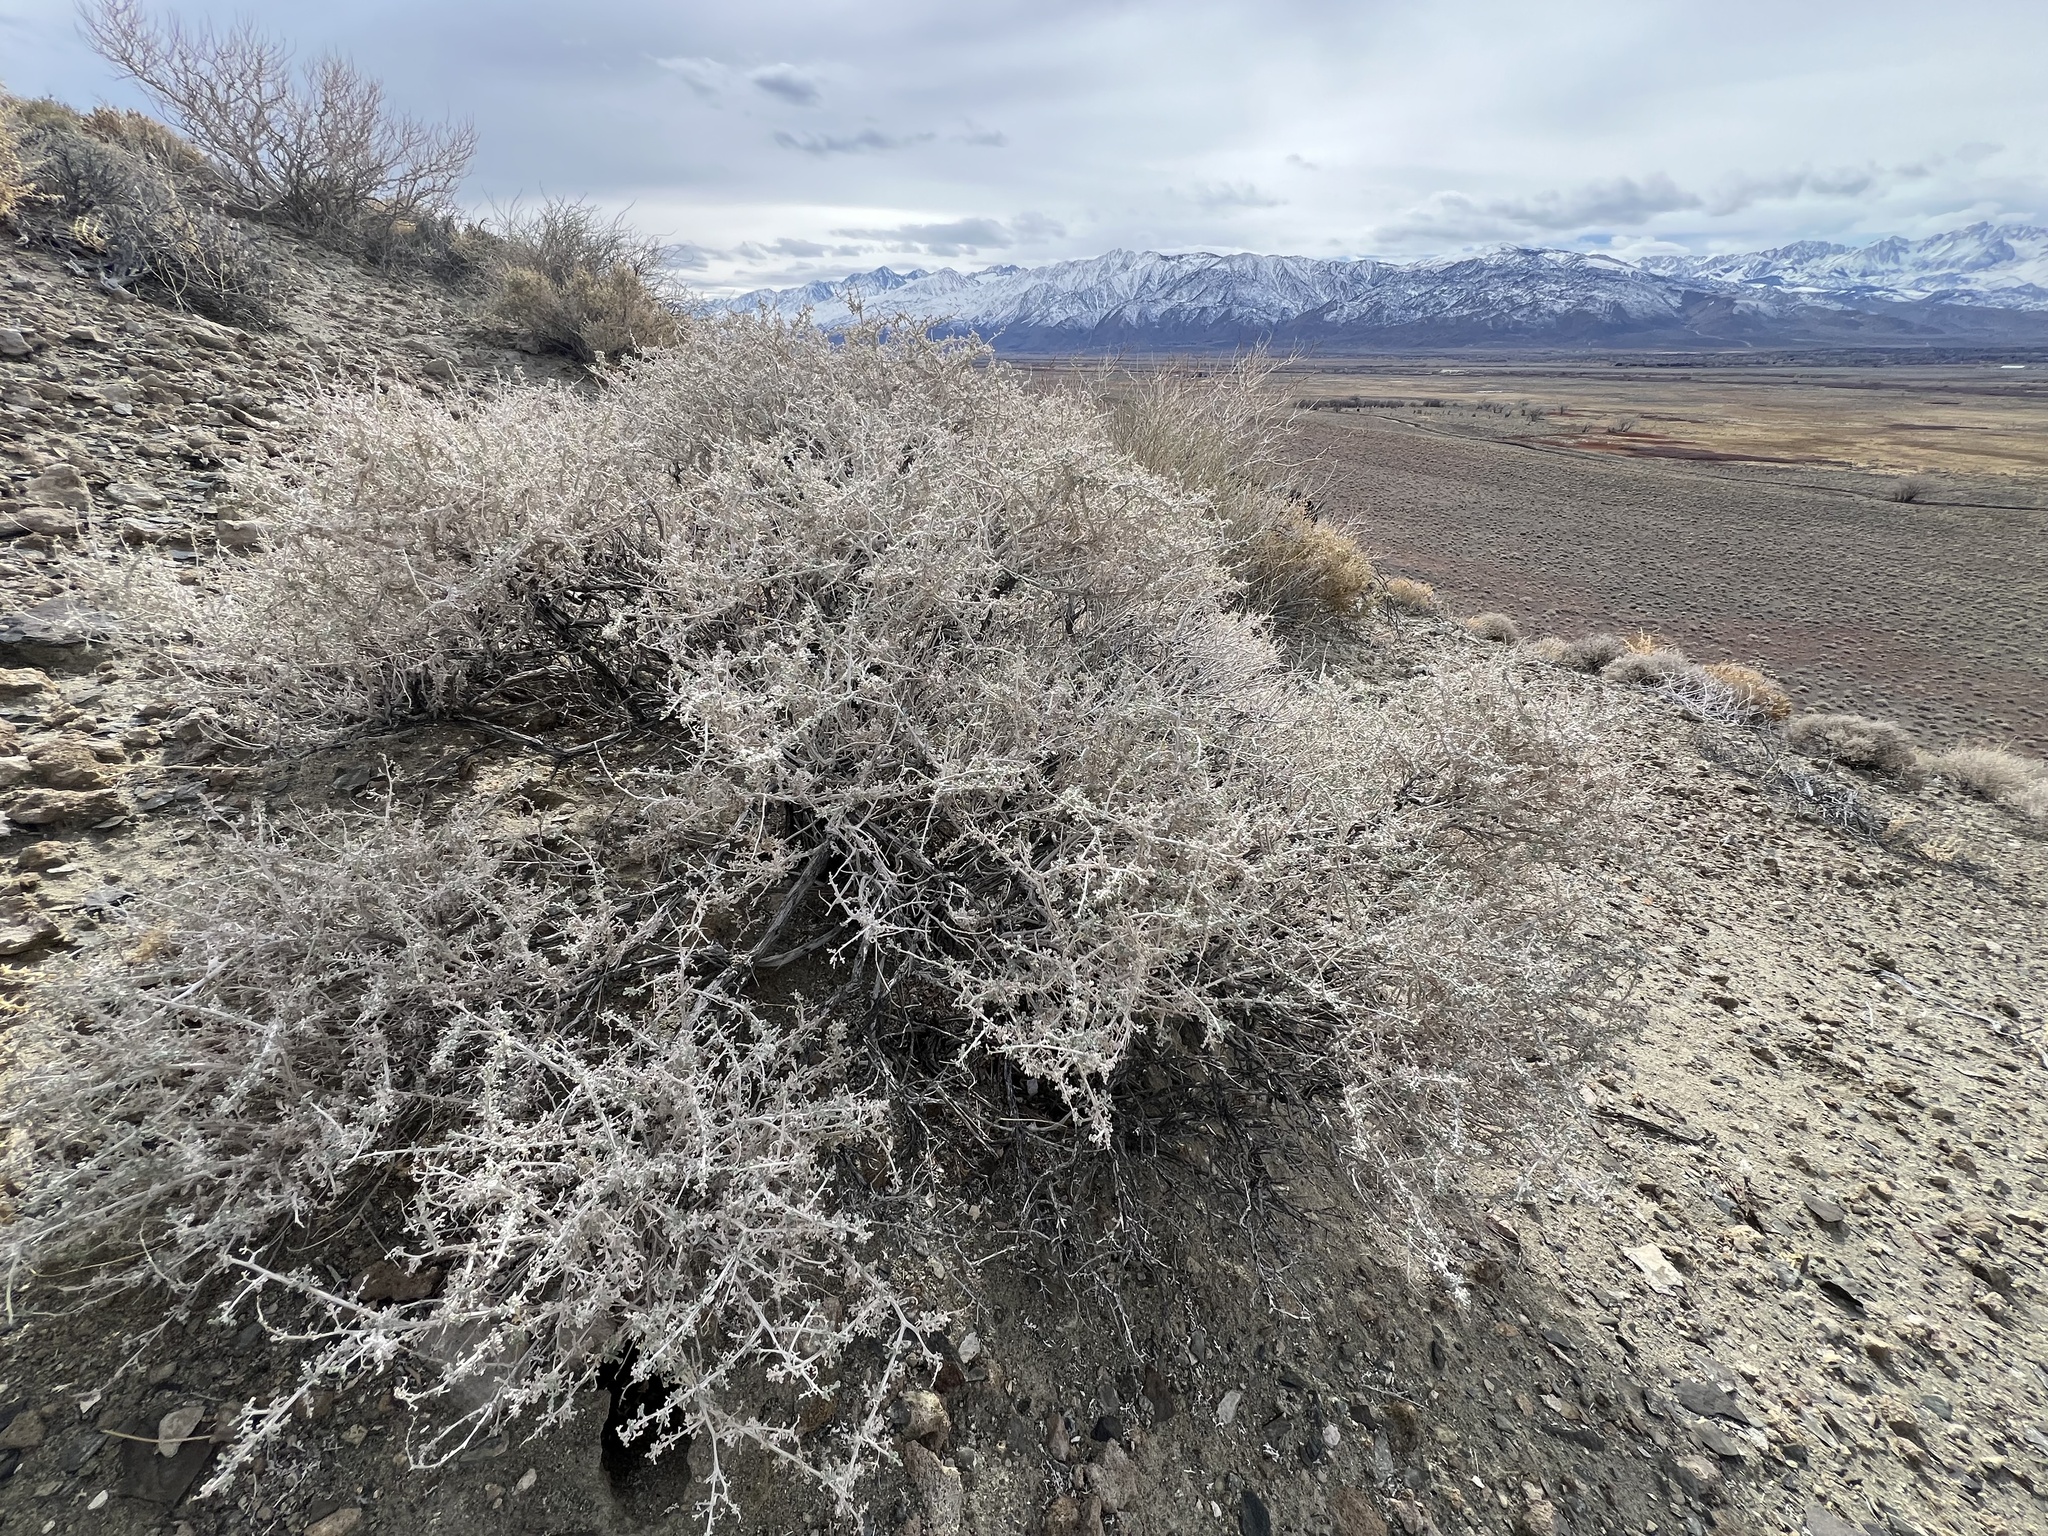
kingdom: Plantae
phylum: Tracheophyta
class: Magnoliopsida
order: Asterales
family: Asteraceae
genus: Ambrosia
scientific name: Ambrosia dumosa
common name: Bur-sage
